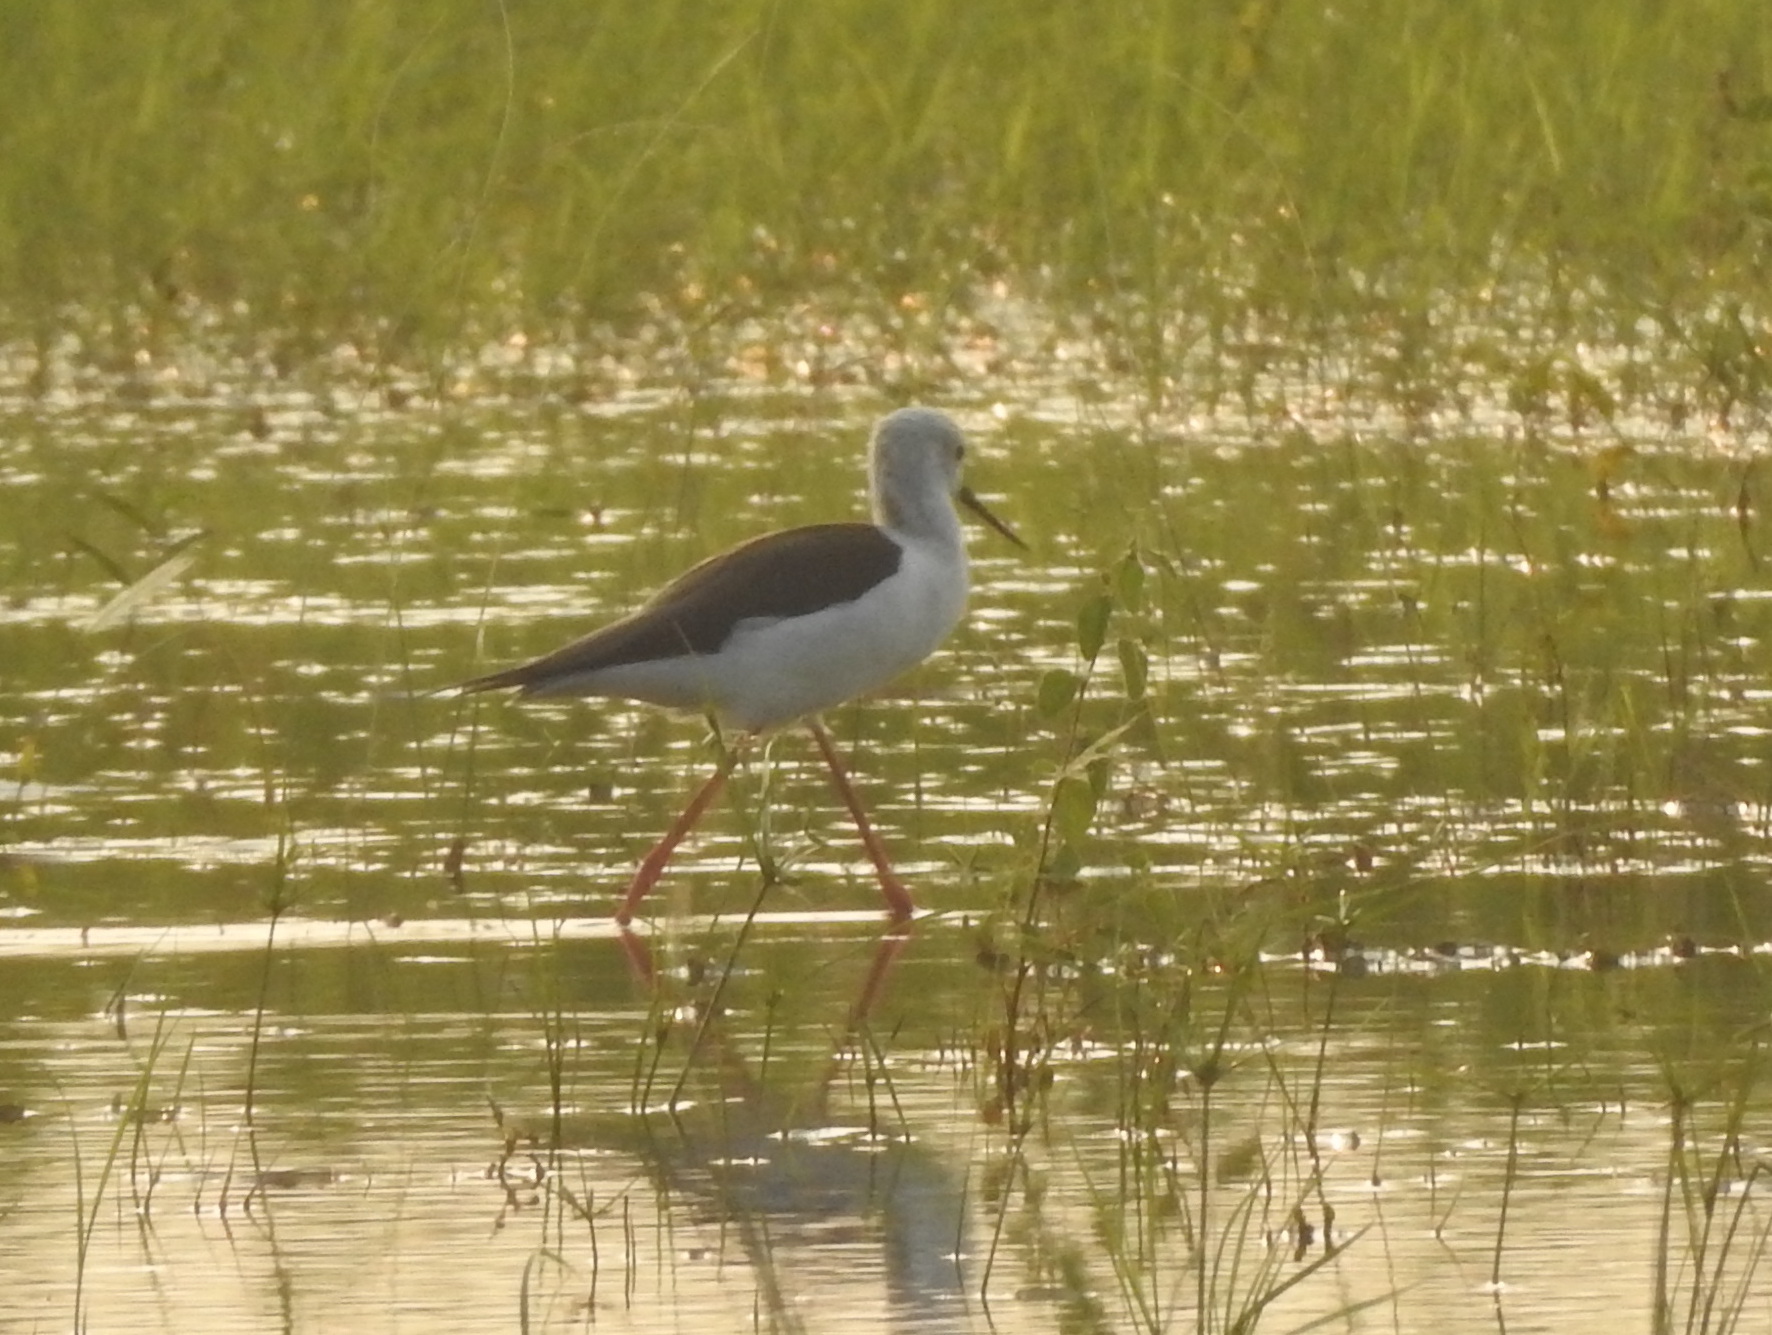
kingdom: Animalia
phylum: Chordata
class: Aves
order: Charadriiformes
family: Recurvirostridae
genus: Himantopus
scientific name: Himantopus himantopus
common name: Black-winged stilt
